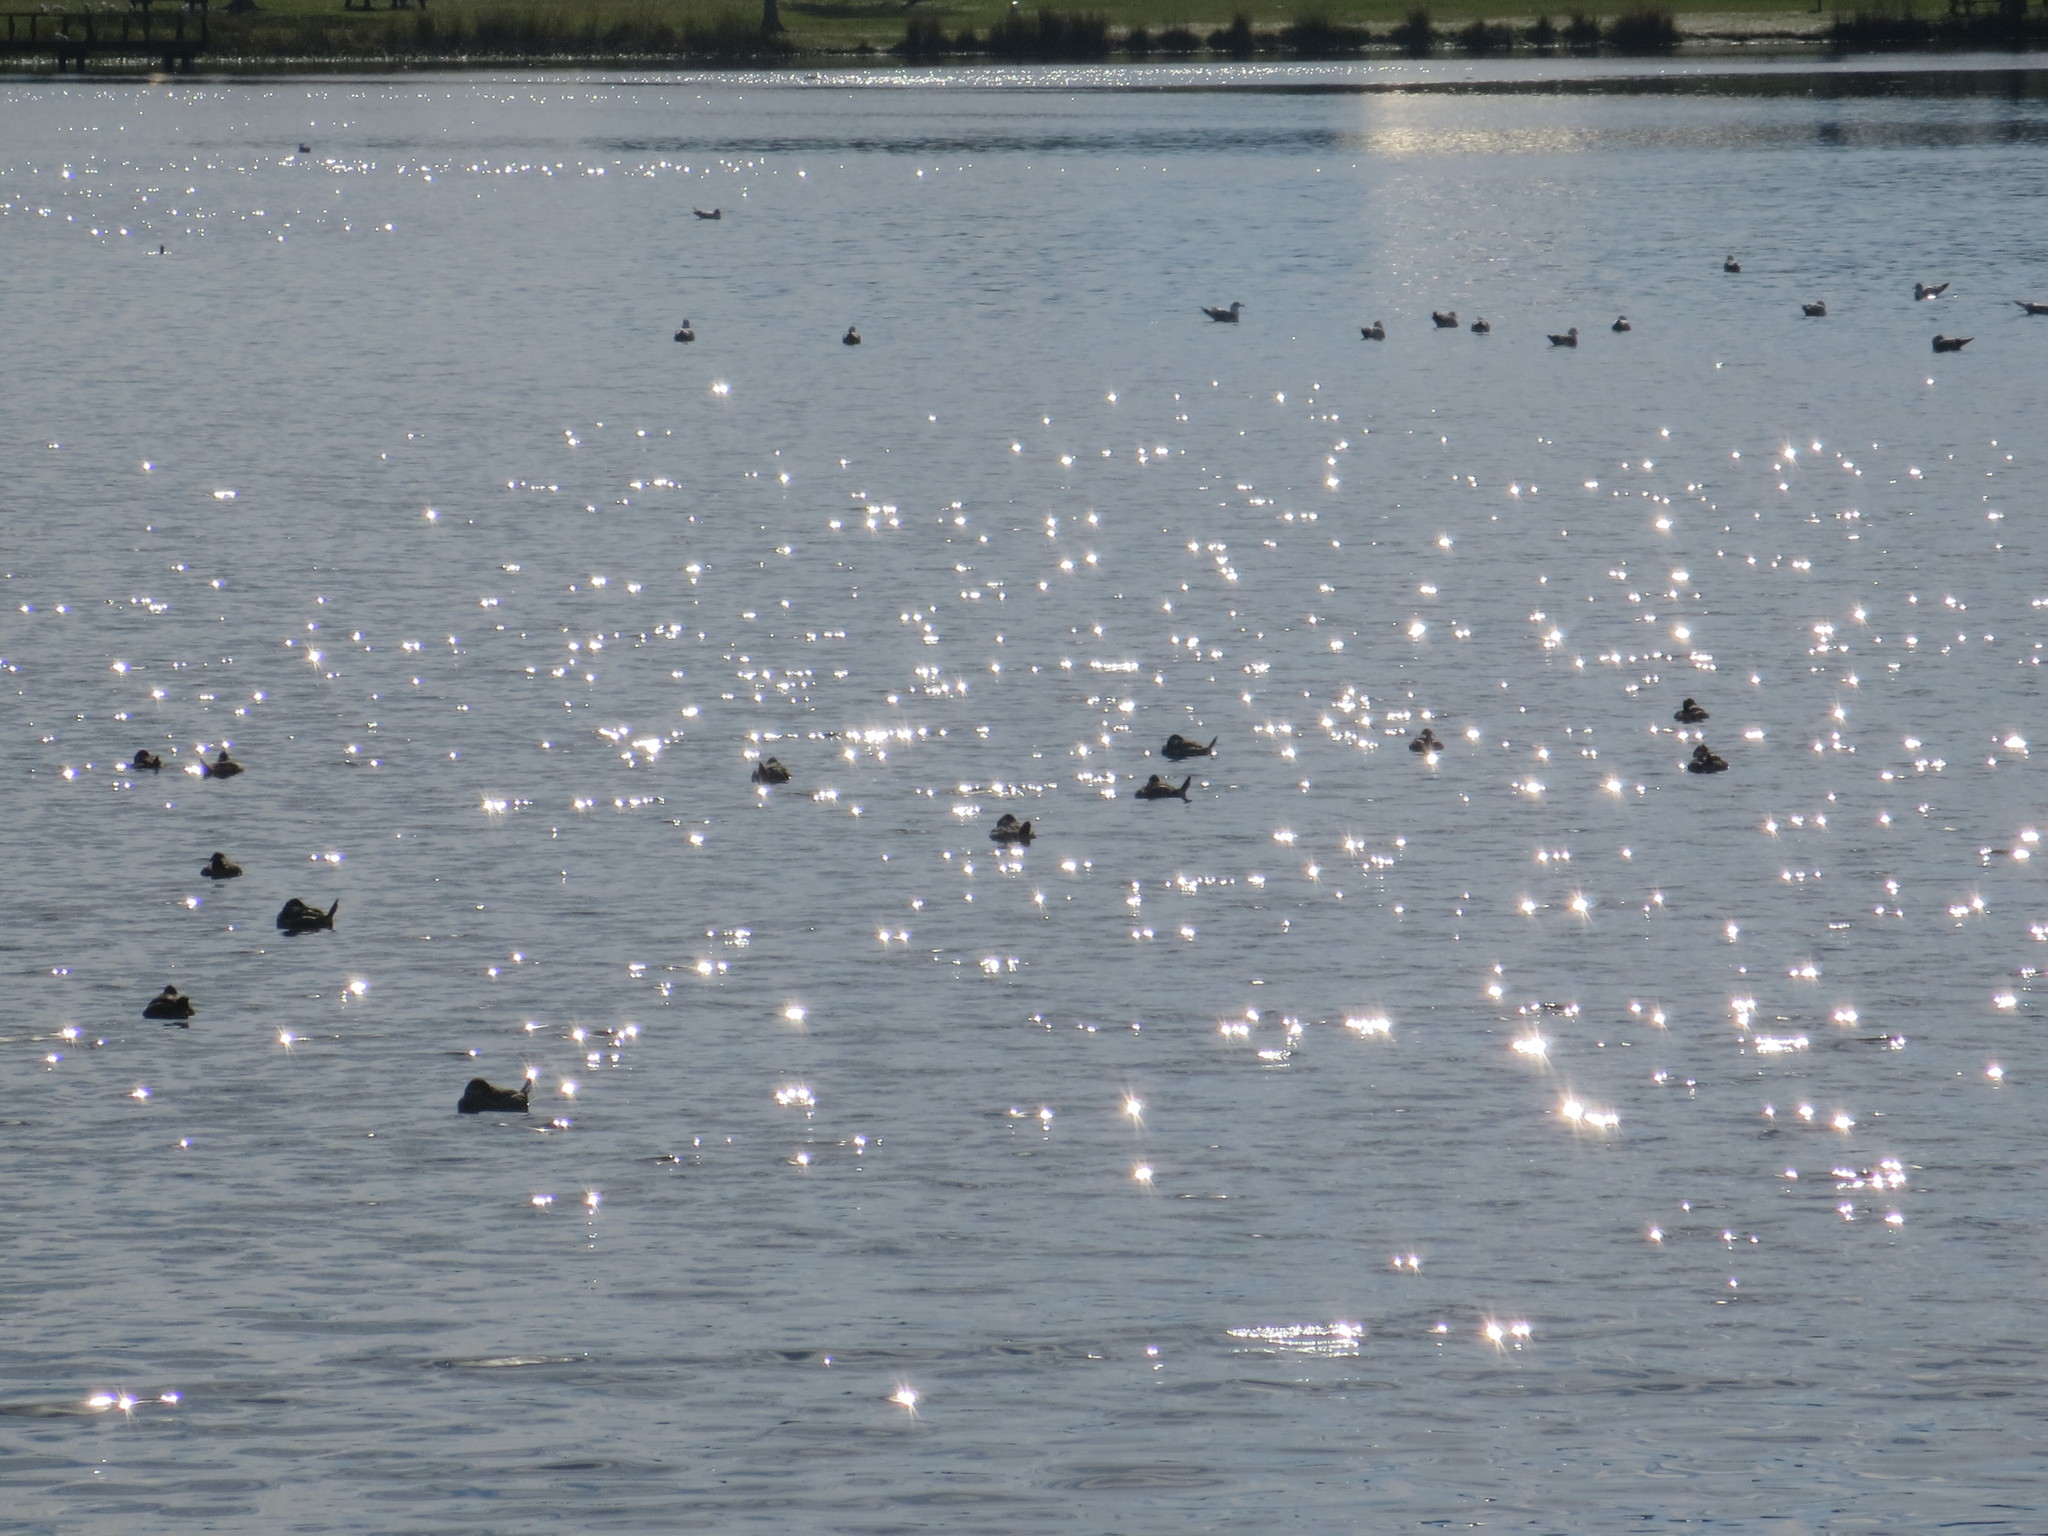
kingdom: Animalia
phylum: Chordata
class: Aves
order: Anseriformes
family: Anatidae
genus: Oxyura
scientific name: Oxyura jamaicensis
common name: Ruddy duck
